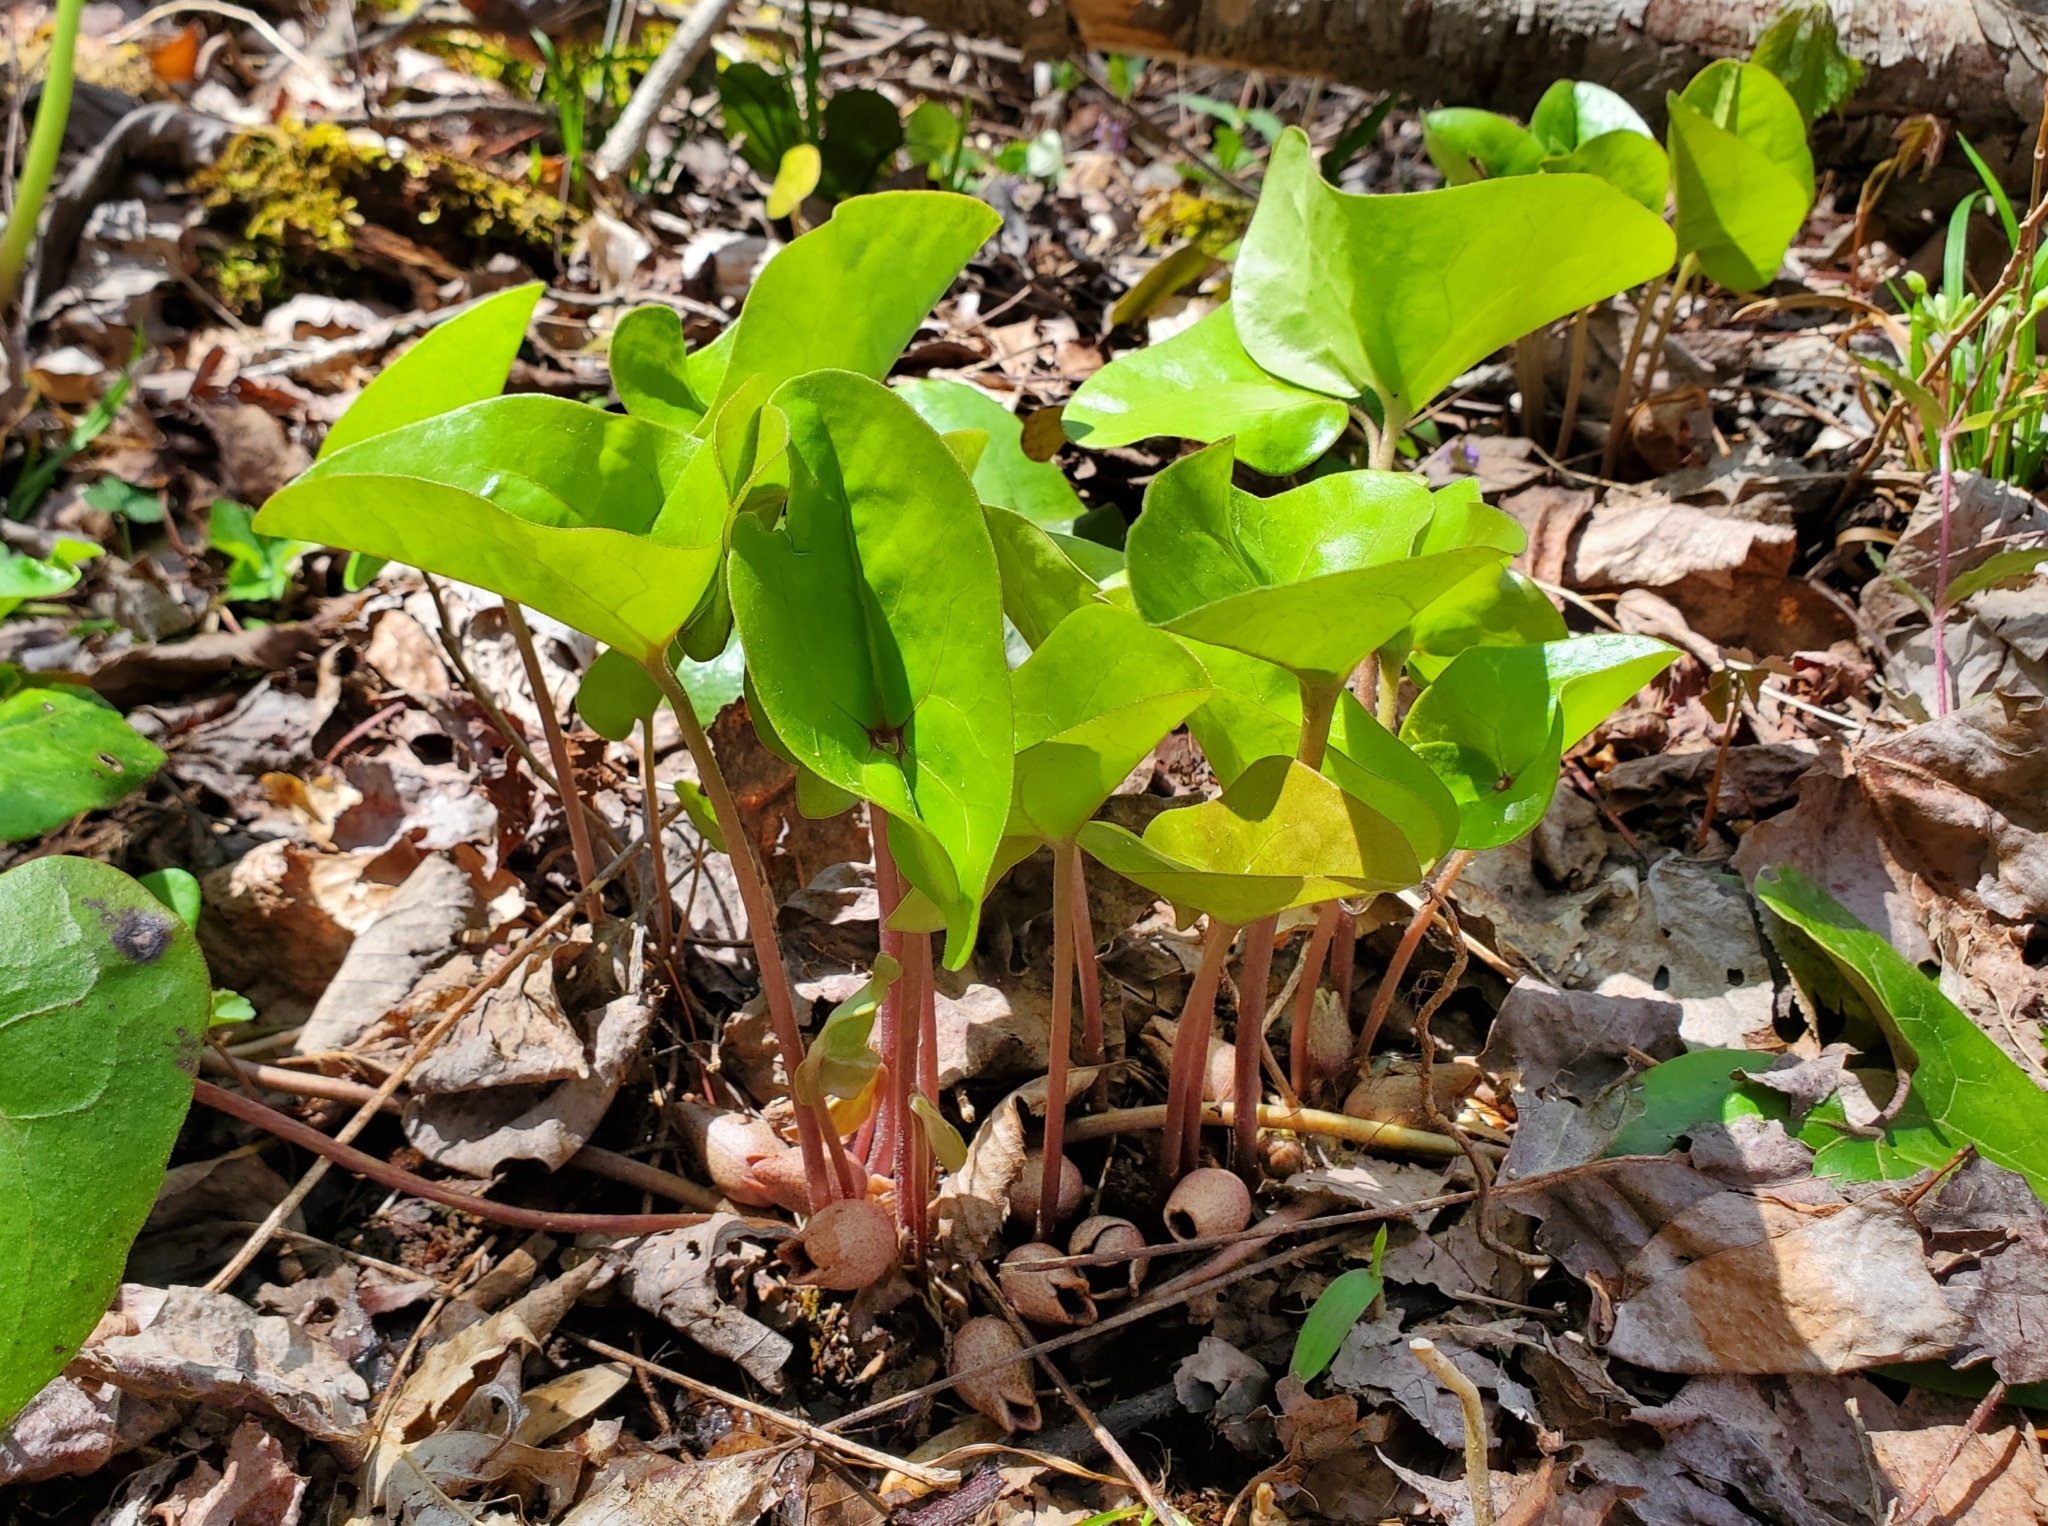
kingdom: Plantae
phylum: Tracheophyta
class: Magnoliopsida
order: Piperales
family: Aristolochiaceae
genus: Hexastylis
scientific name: Hexastylis arifolia
